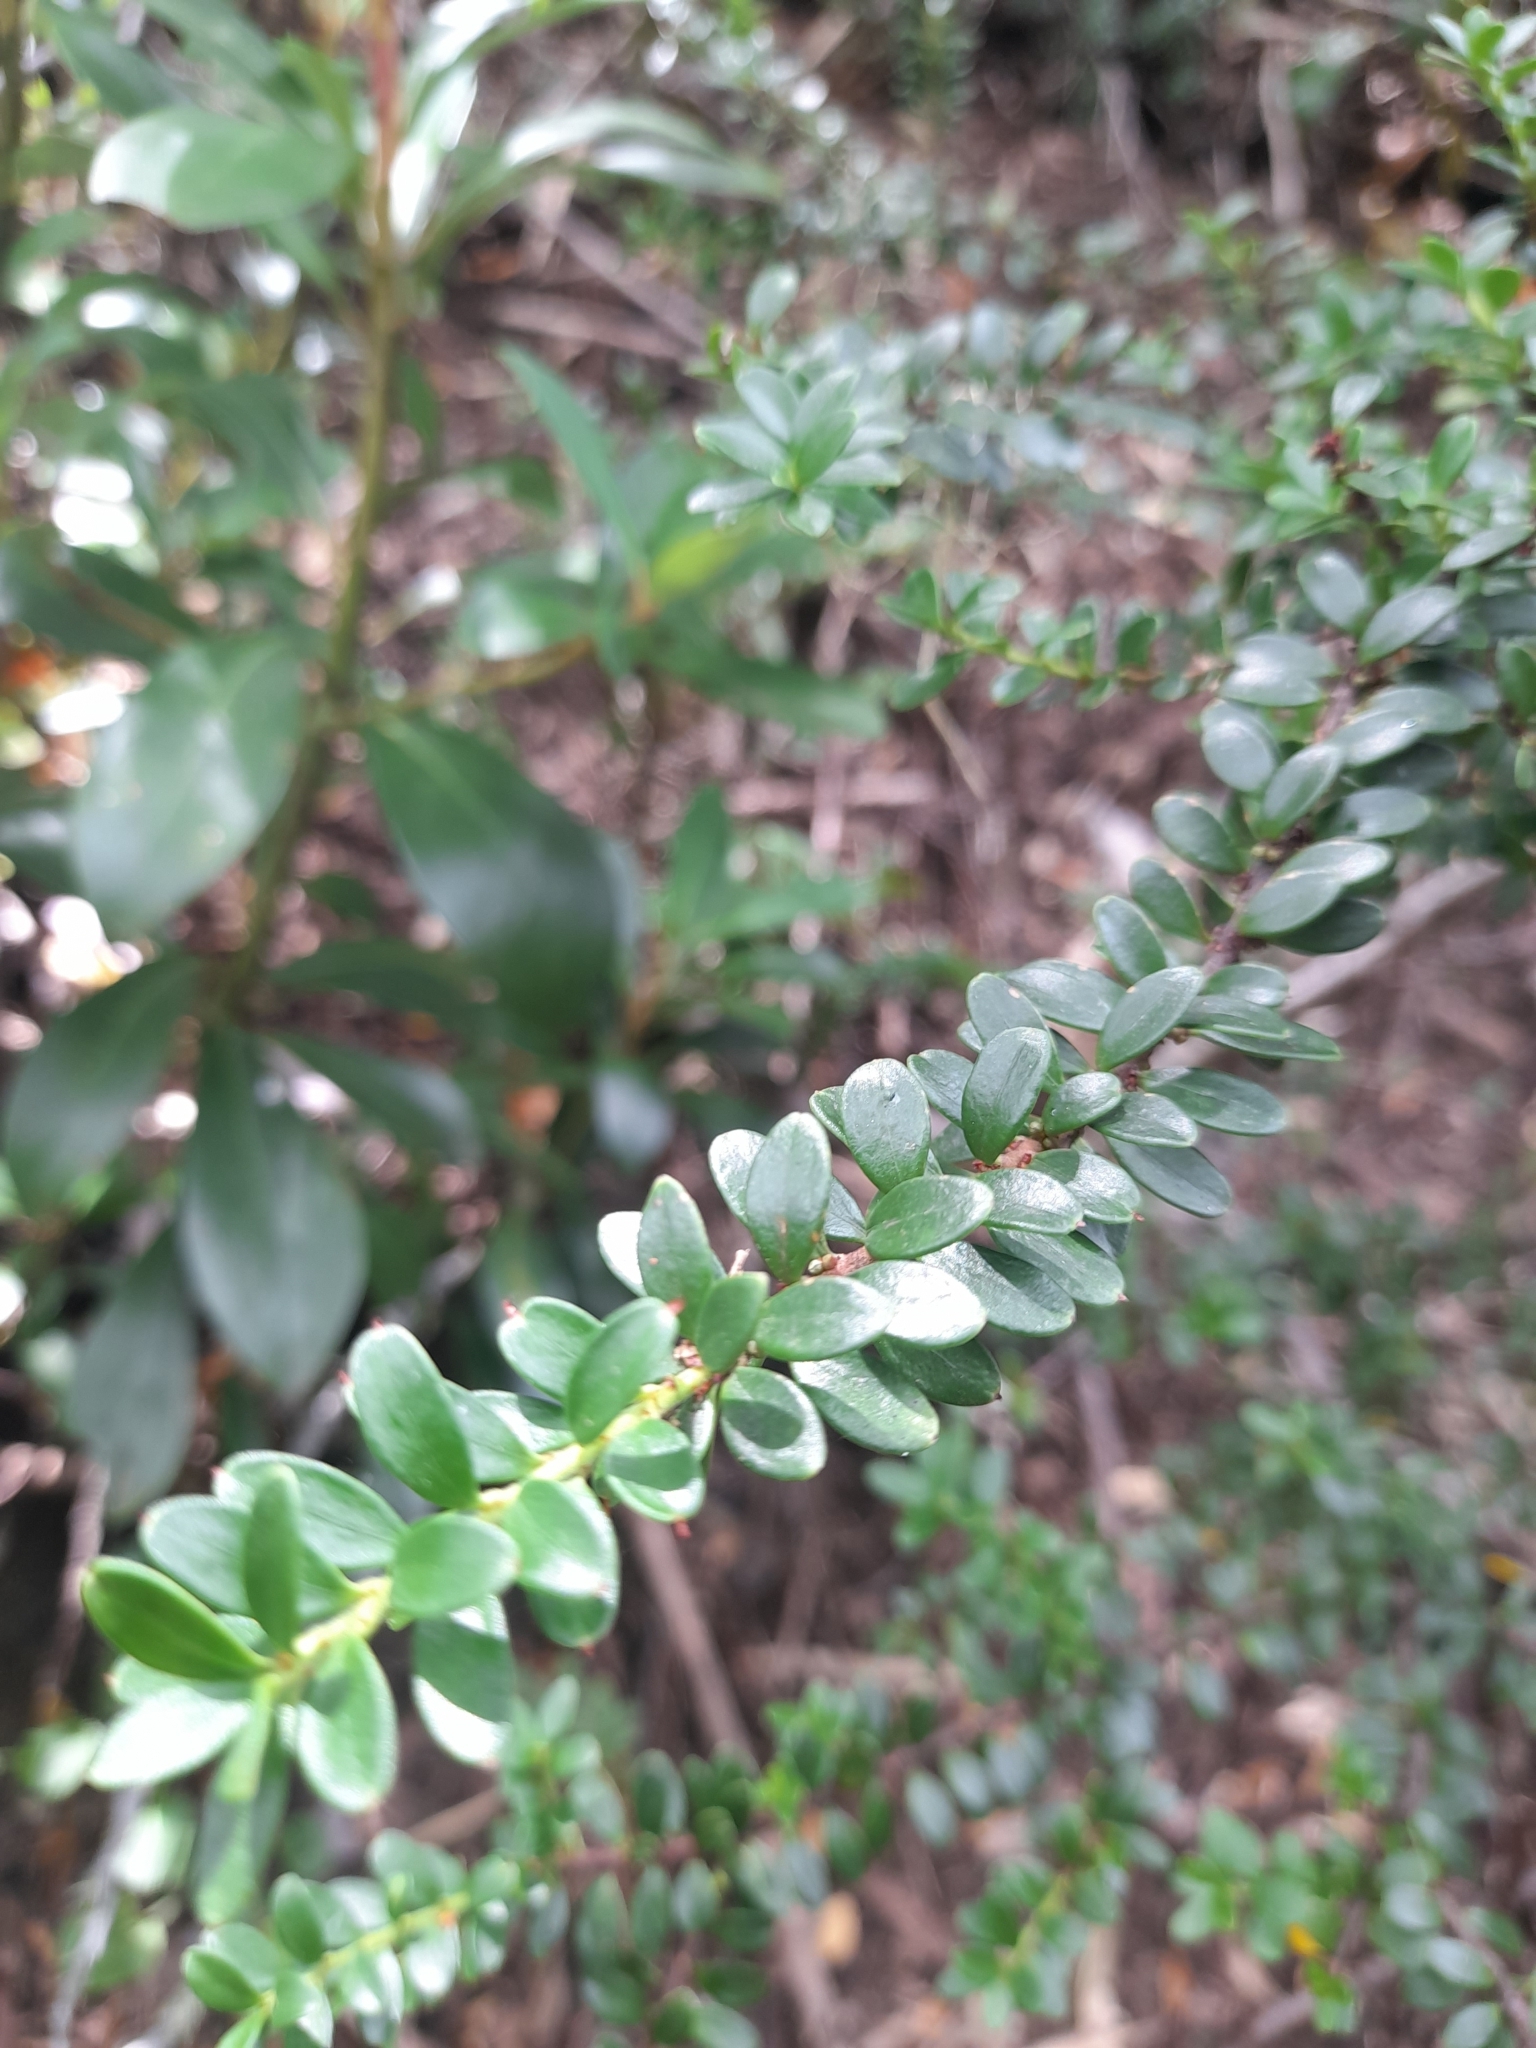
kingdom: Plantae
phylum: Tracheophyta
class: Magnoliopsida
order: Celastrales
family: Celastraceae
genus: Maytenus
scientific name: Maytenus disticha
